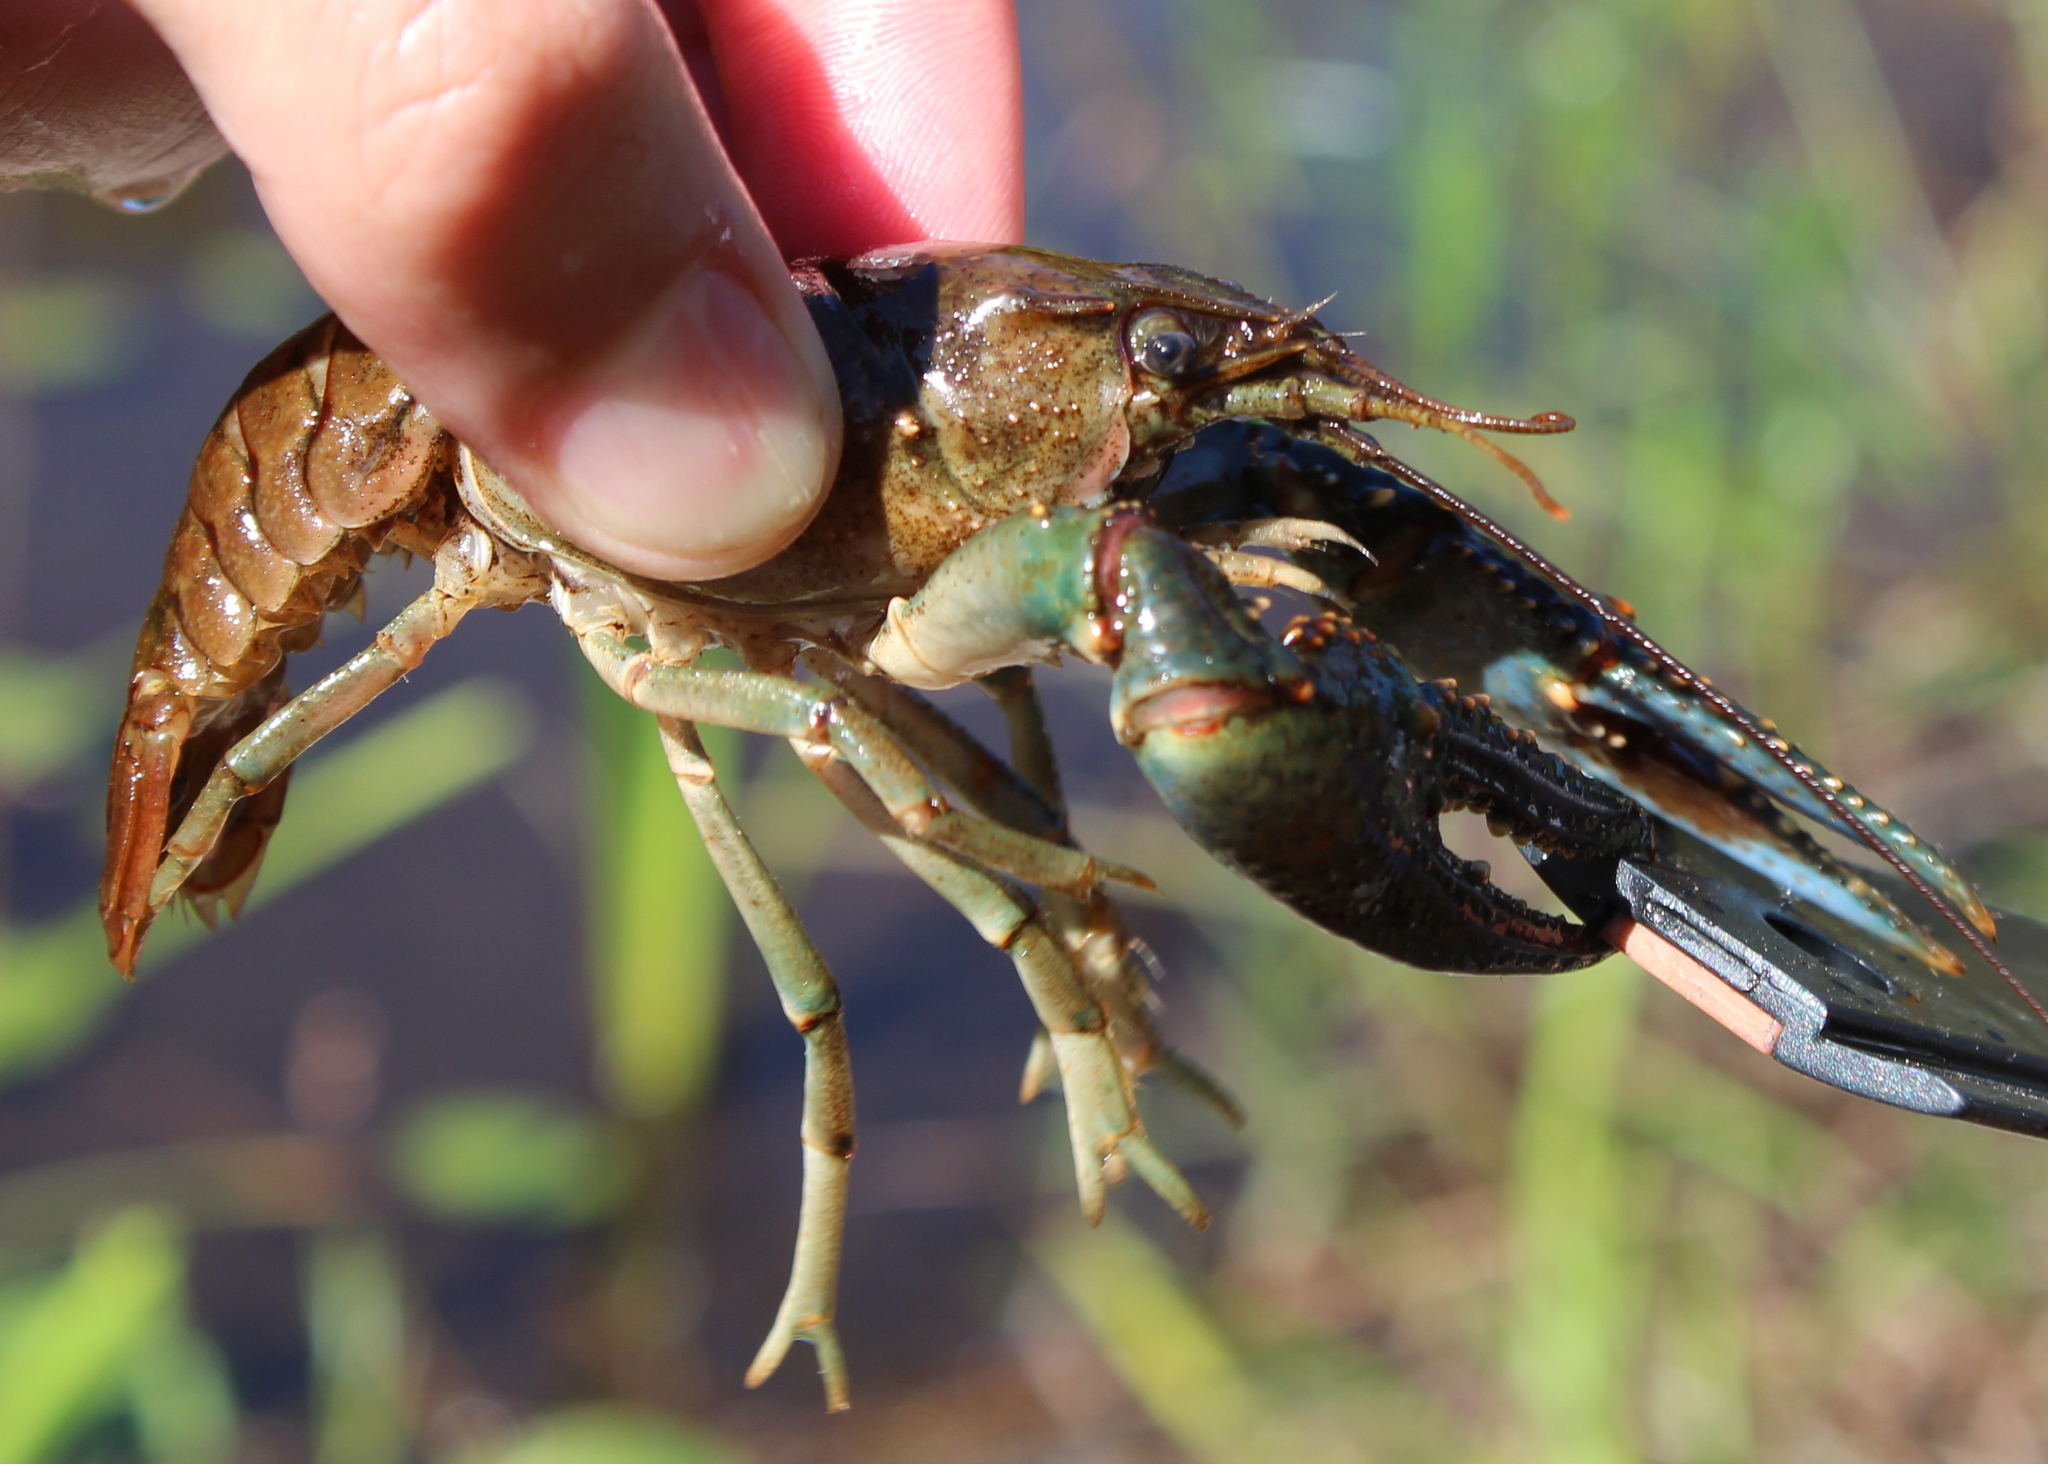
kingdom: Animalia
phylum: Arthropoda
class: Malacostraca
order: Decapoda
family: Cambaridae
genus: Faxonius
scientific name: Faxonius virilis
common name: Virile crayfish
